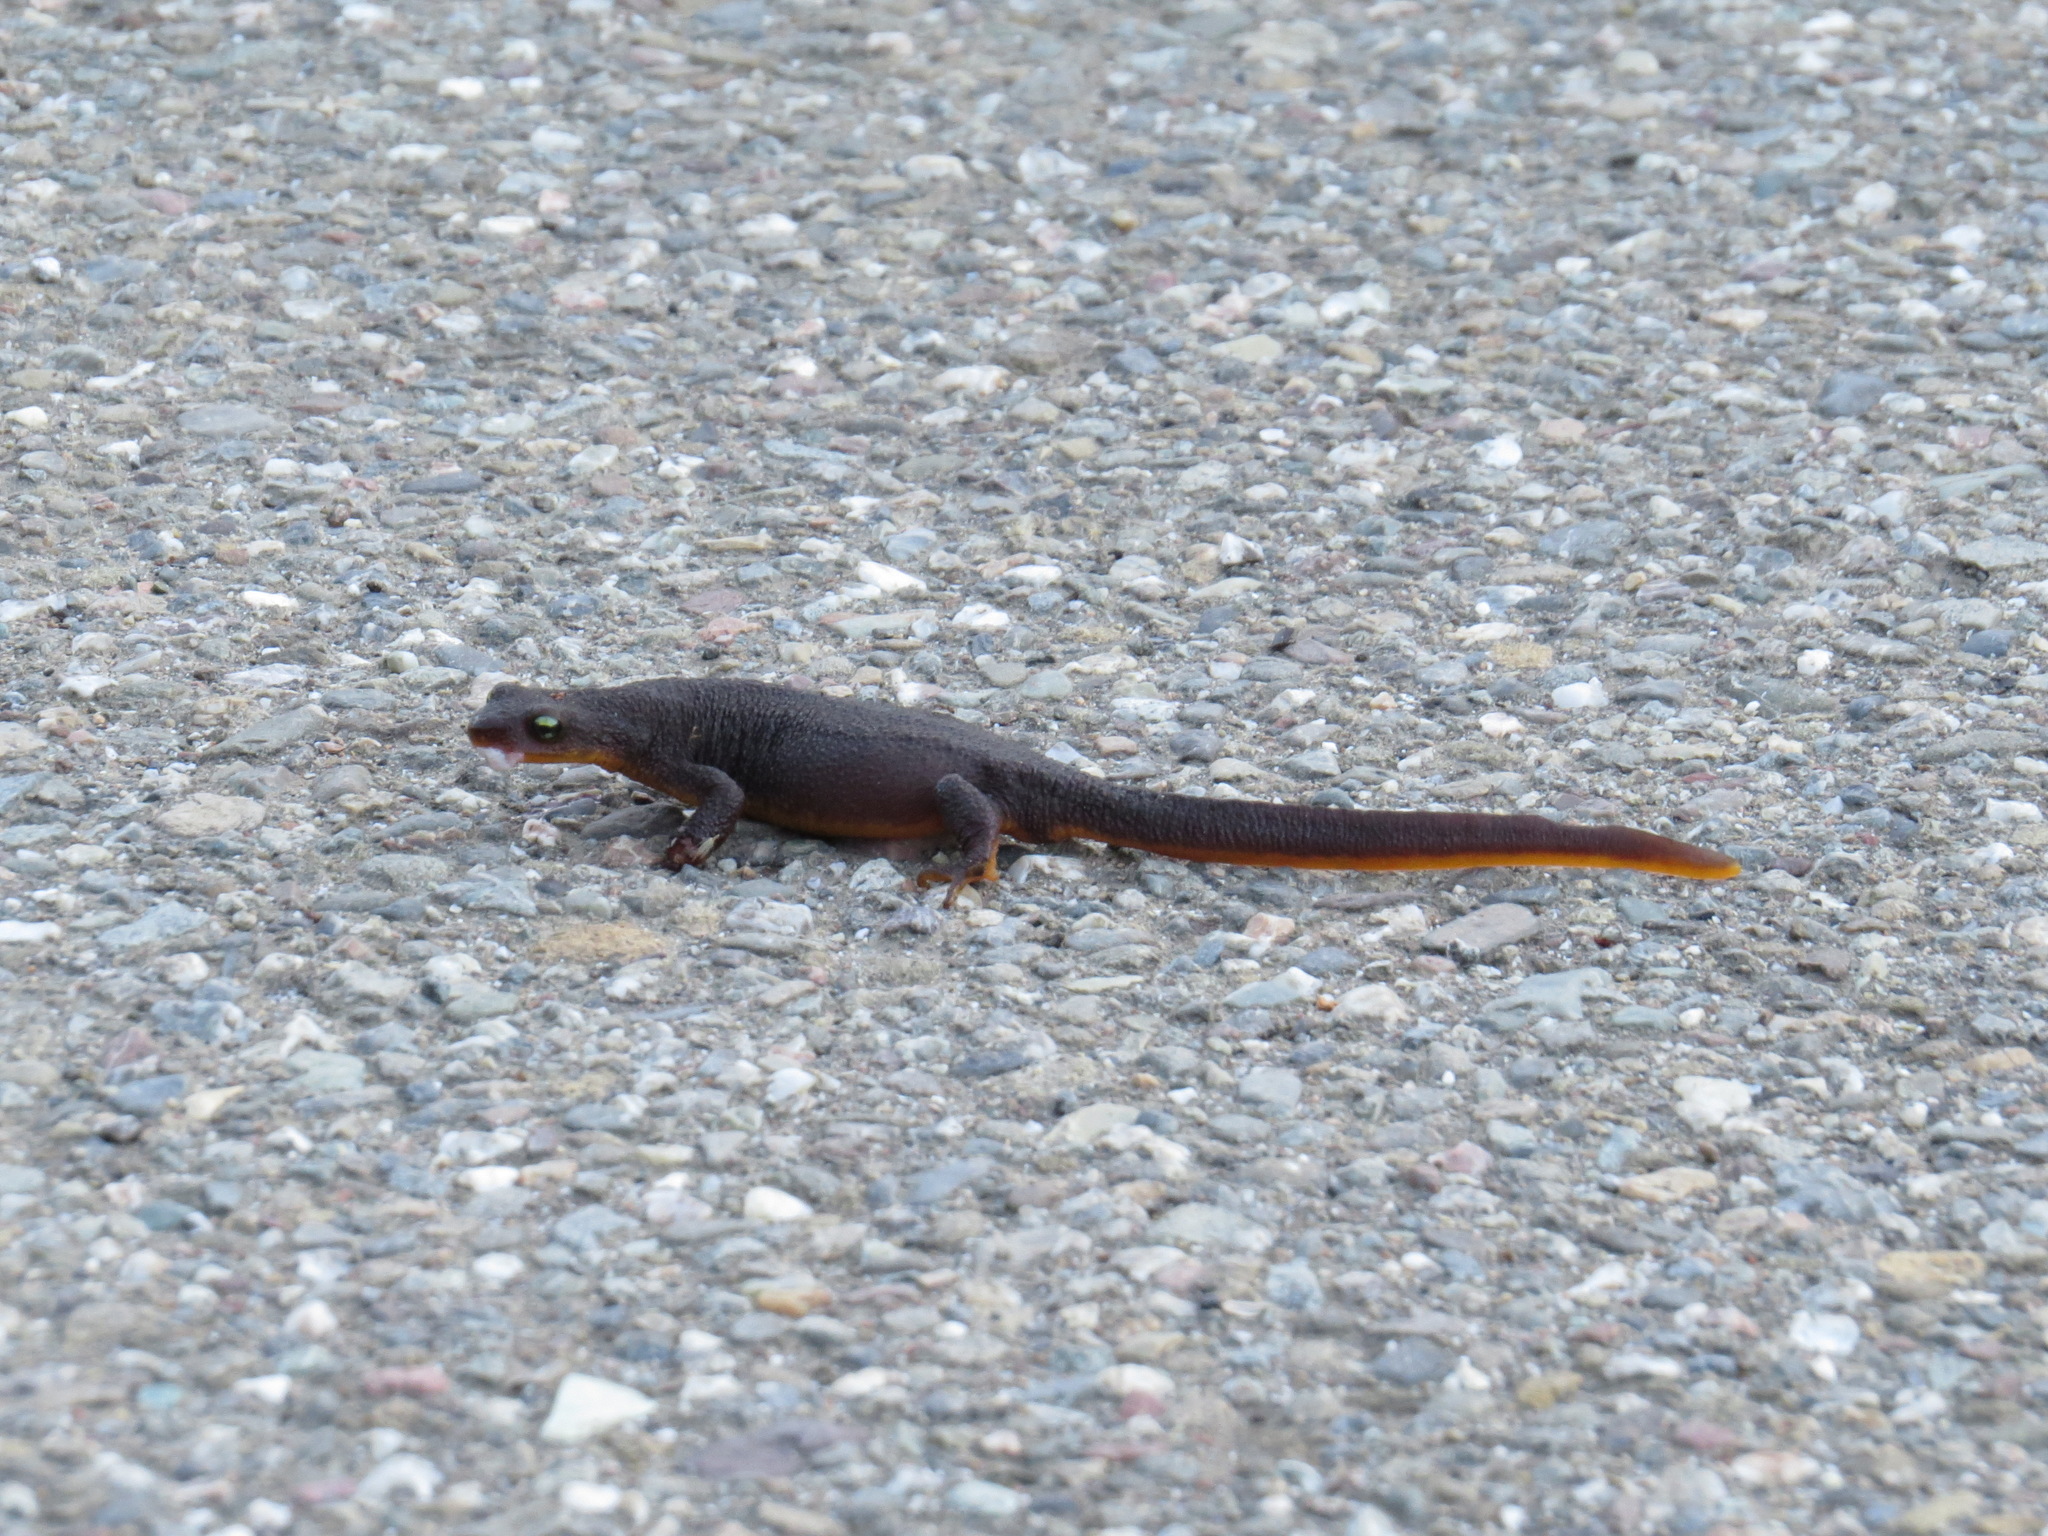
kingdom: Animalia
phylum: Chordata
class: Amphibia
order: Caudata
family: Salamandridae
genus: Taricha
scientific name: Taricha granulosa
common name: Roughskin newt
